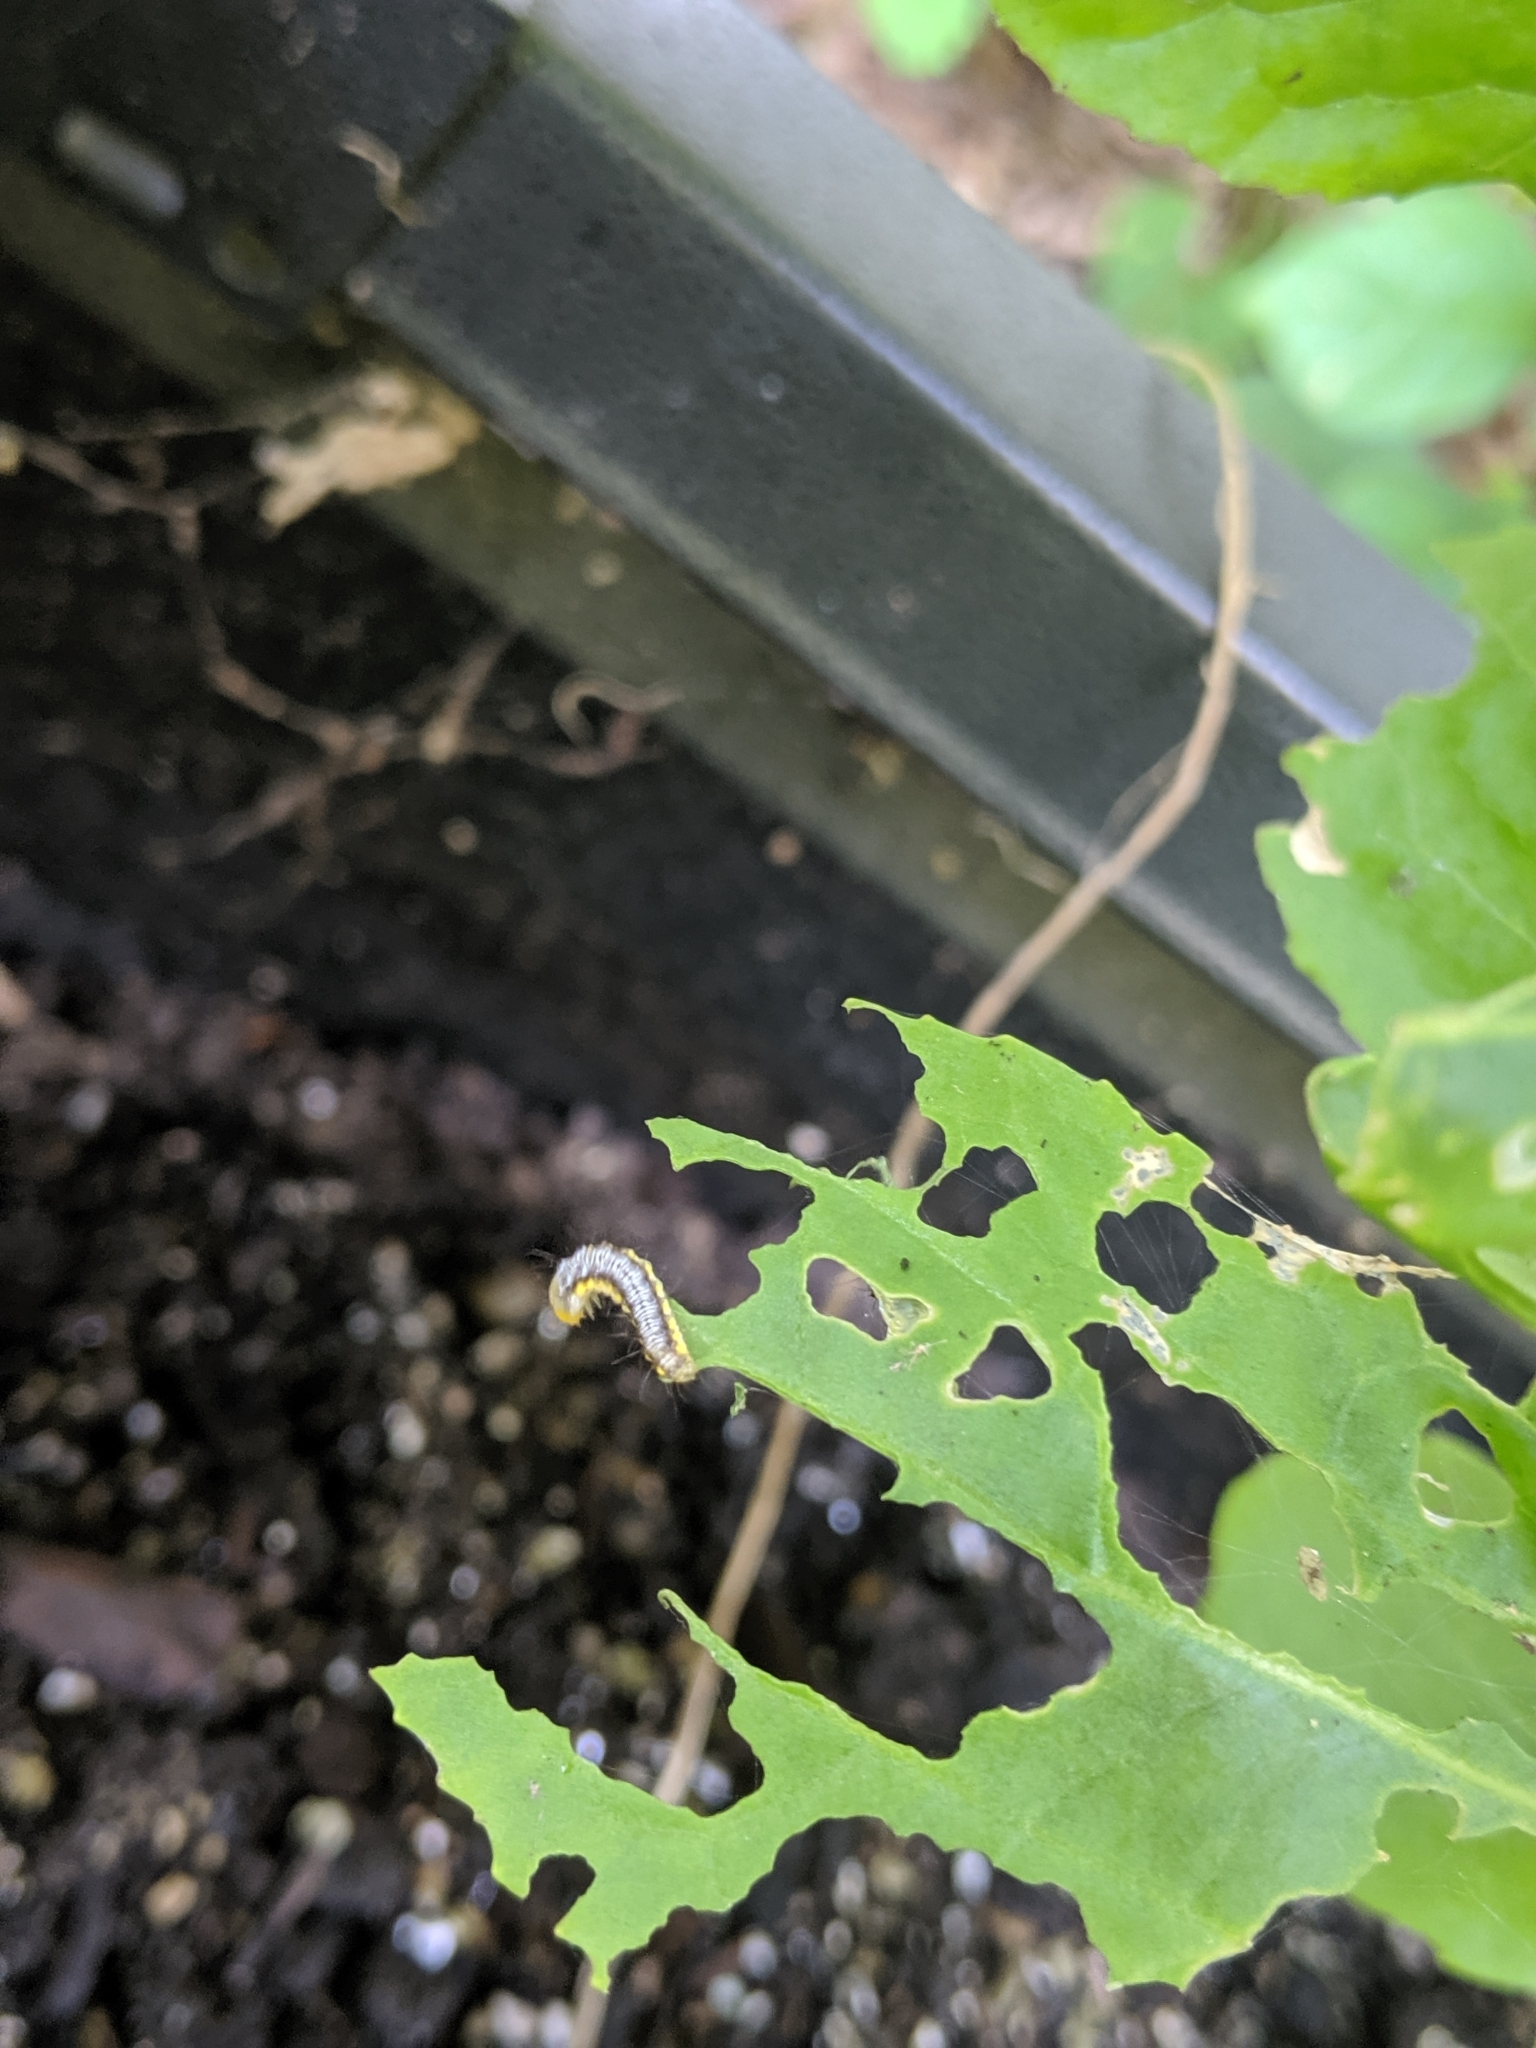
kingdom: Animalia
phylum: Arthropoda
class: Insecta
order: Lepidoptera
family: Crambidae
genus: Evergestis
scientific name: Evergestis rimosalis
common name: Cross-striped cabbageworm moth
